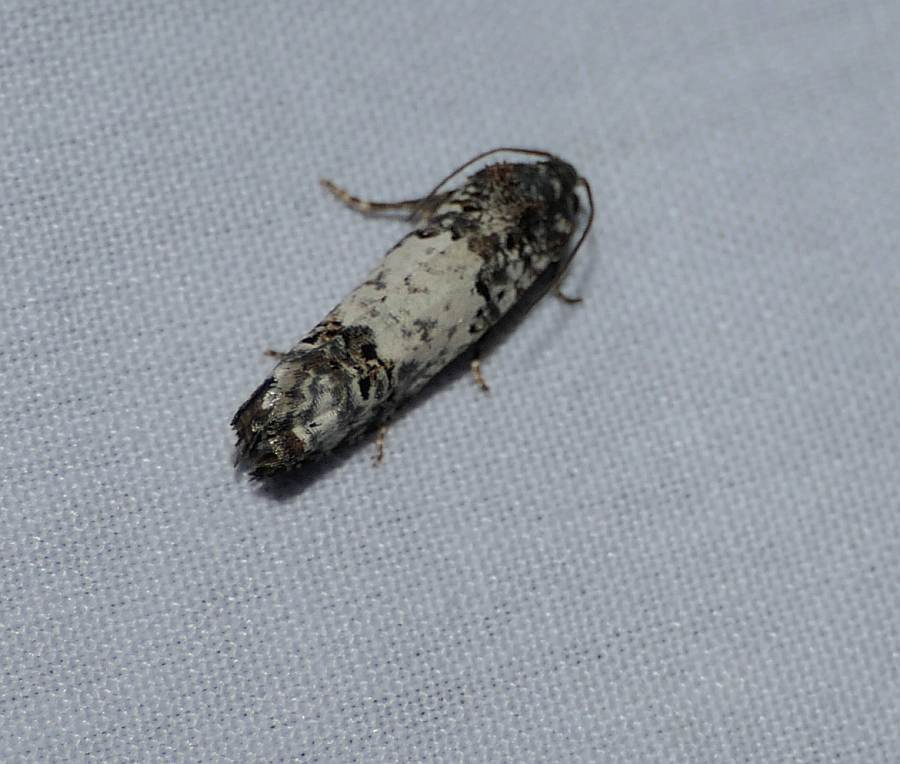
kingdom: Animalia
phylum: Arthropoda
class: Insecta
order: Lepidoptera
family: Tortricidae
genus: Epiblema
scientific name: Epiblema carolinana
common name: Gray-blotched epiblema moth
